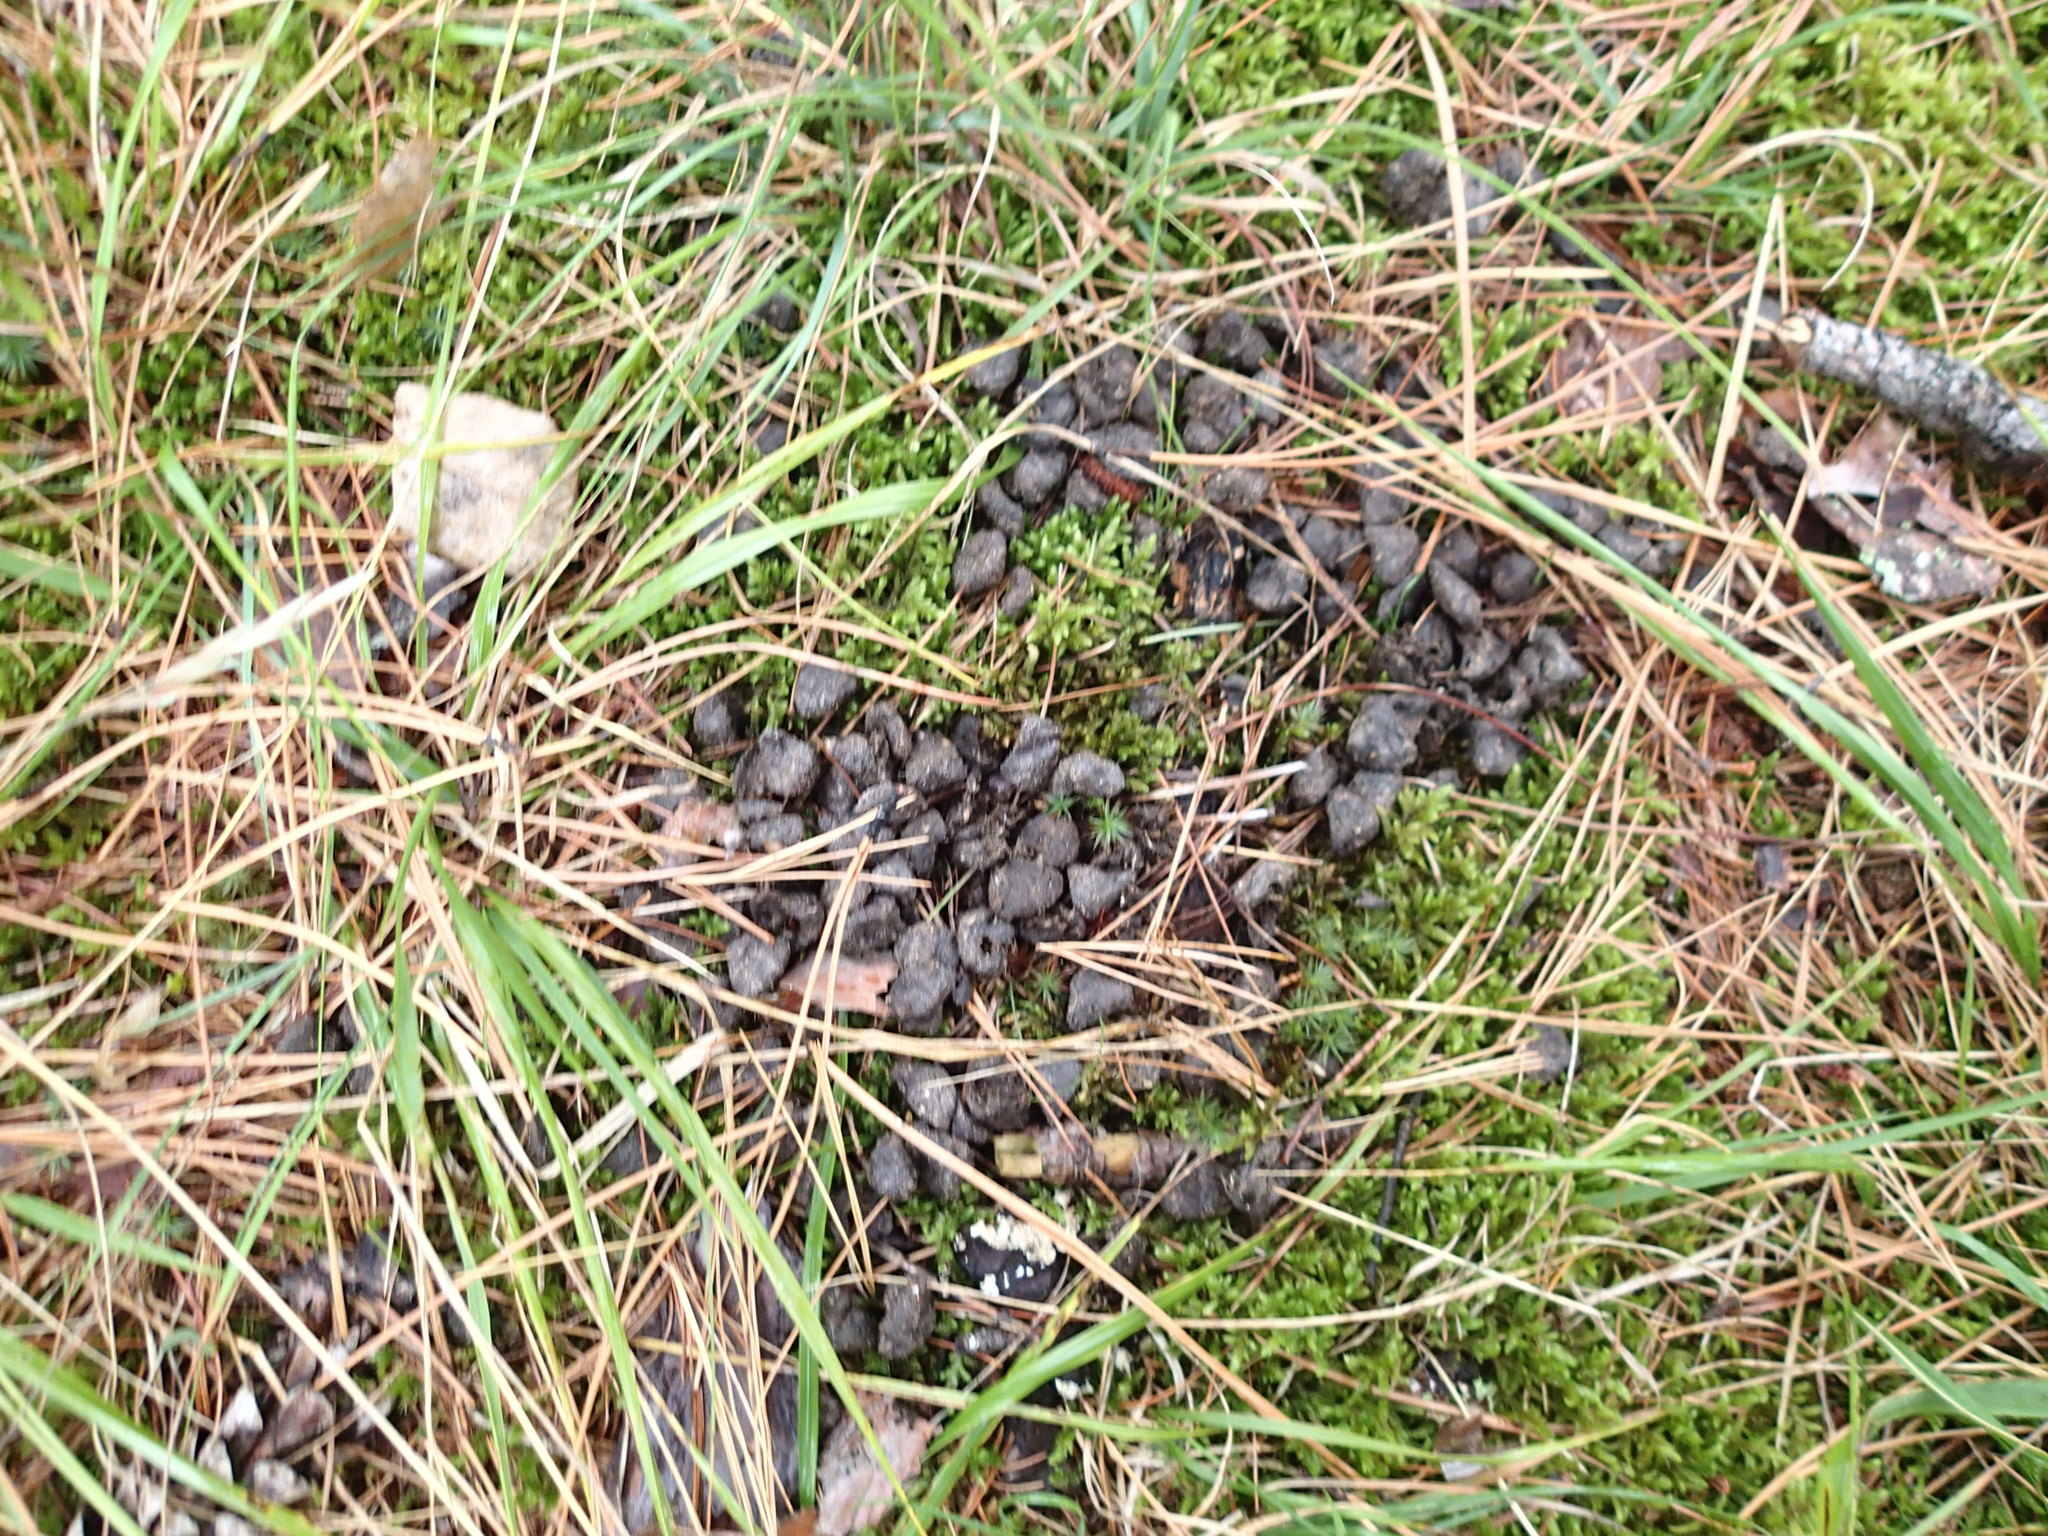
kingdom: Animalia
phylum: Chordata
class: Mammalia
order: Artiodactyla
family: Cervidae
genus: Odocoileus
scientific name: Odocoileus virginianus
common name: White-tailed deer
